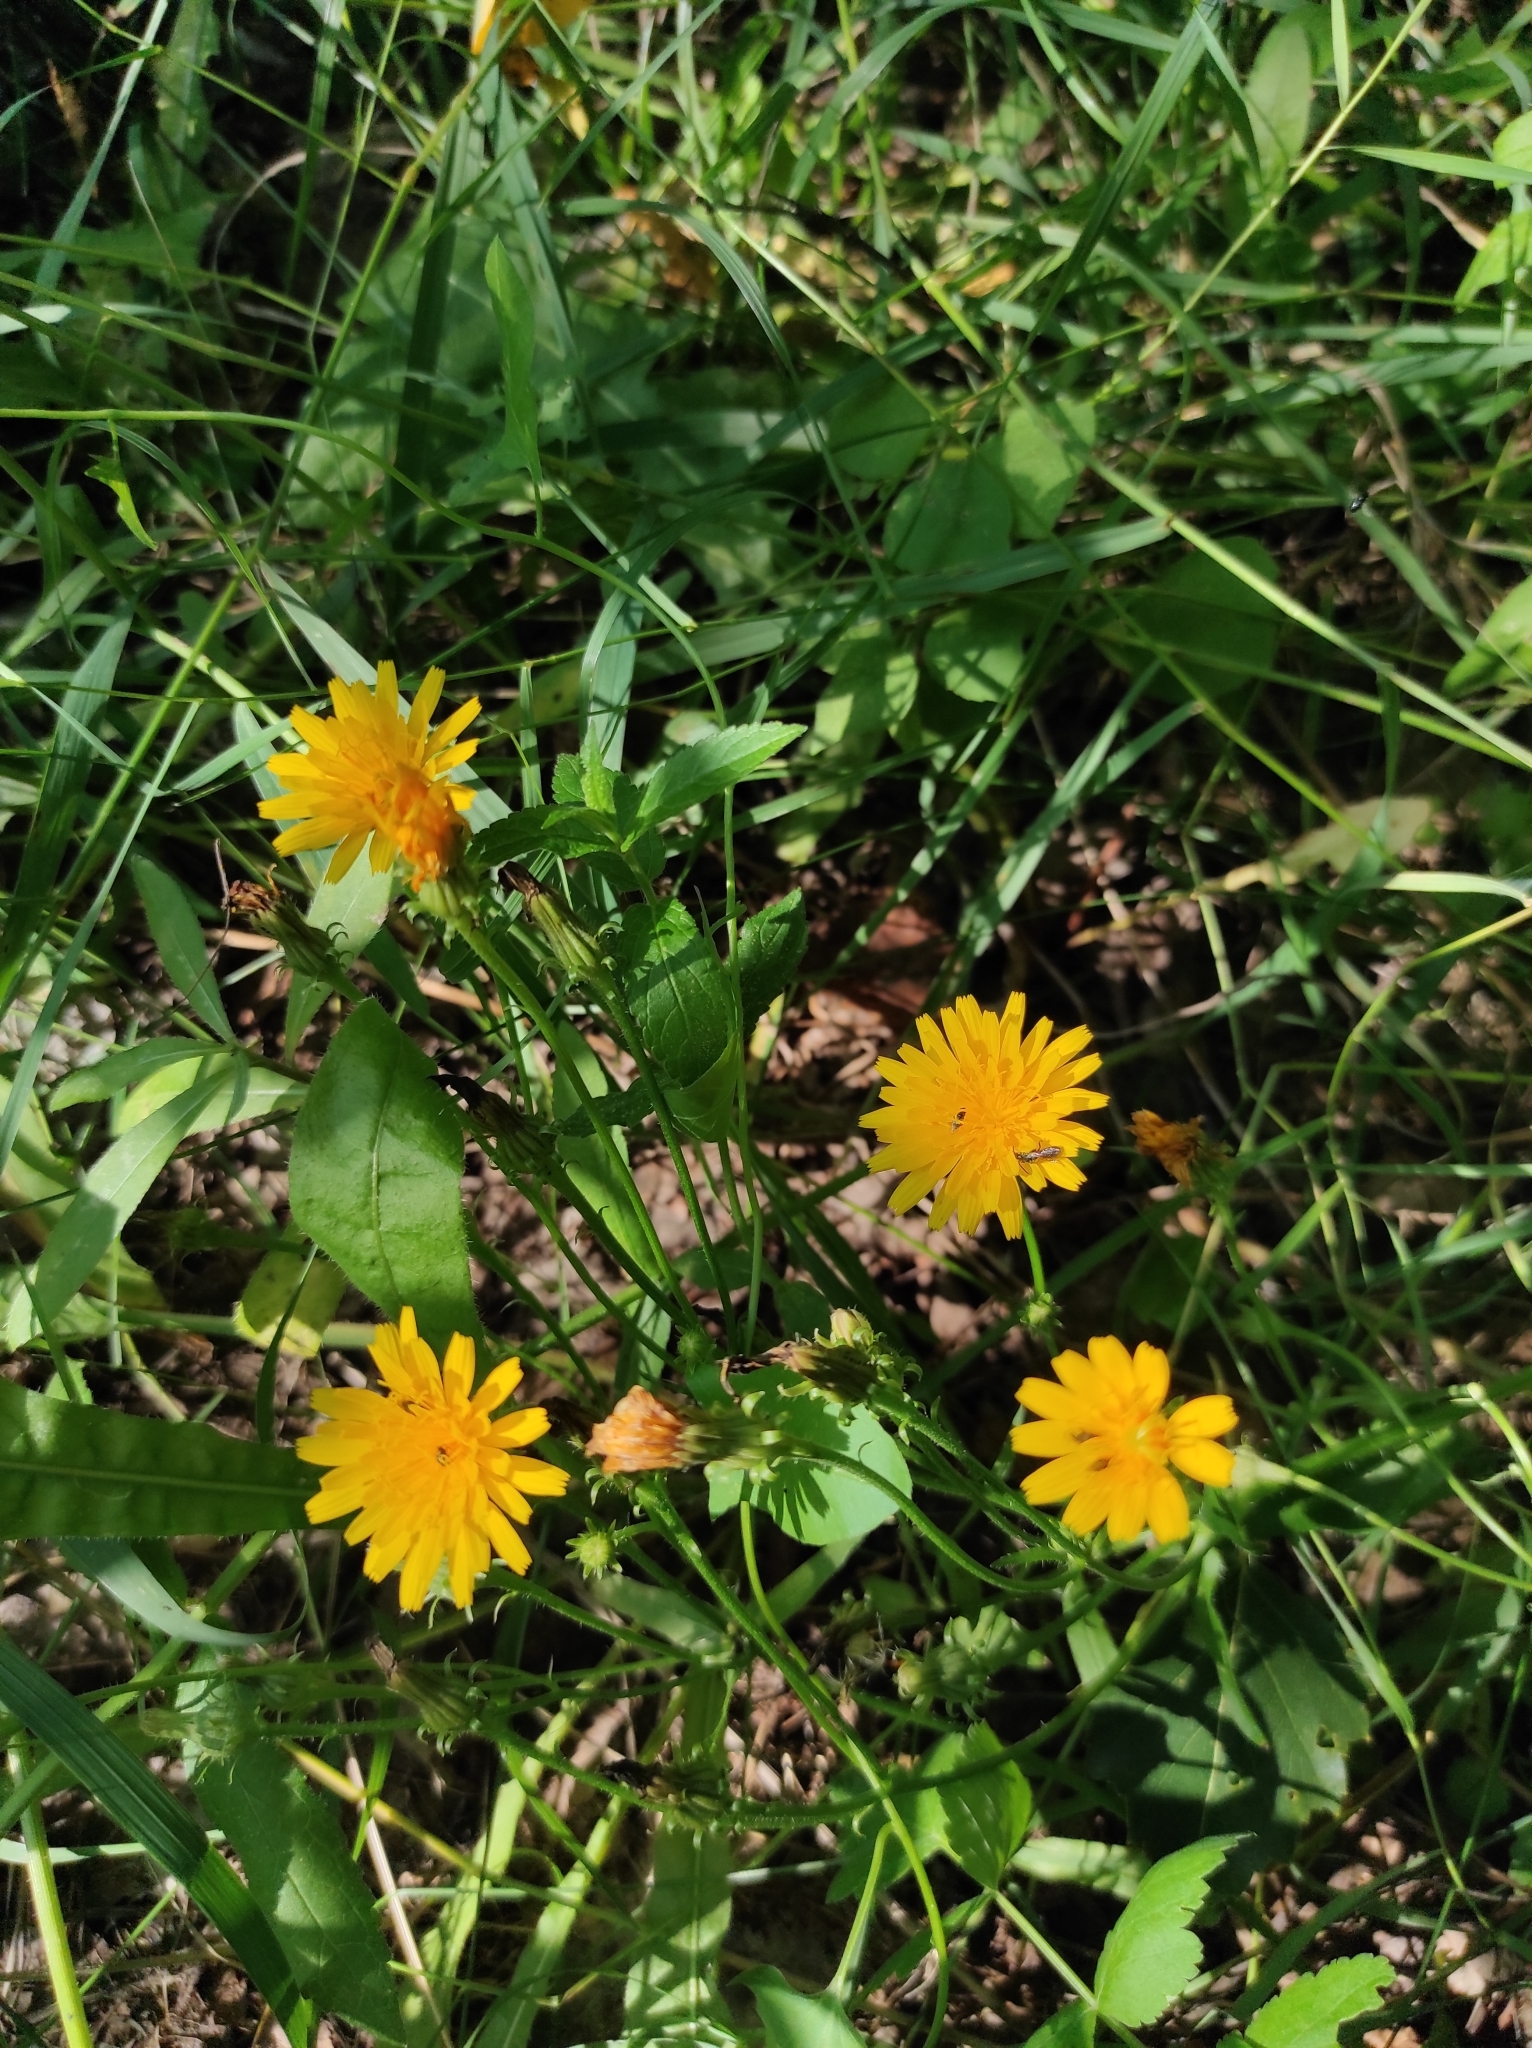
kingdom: Plantae
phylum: Tracheophyta
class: Magnoliopsida
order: Asterales
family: Asteraceae
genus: Scorzoneroides
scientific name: Scorzoneroides autumnalis
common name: Autumn hawkbit
